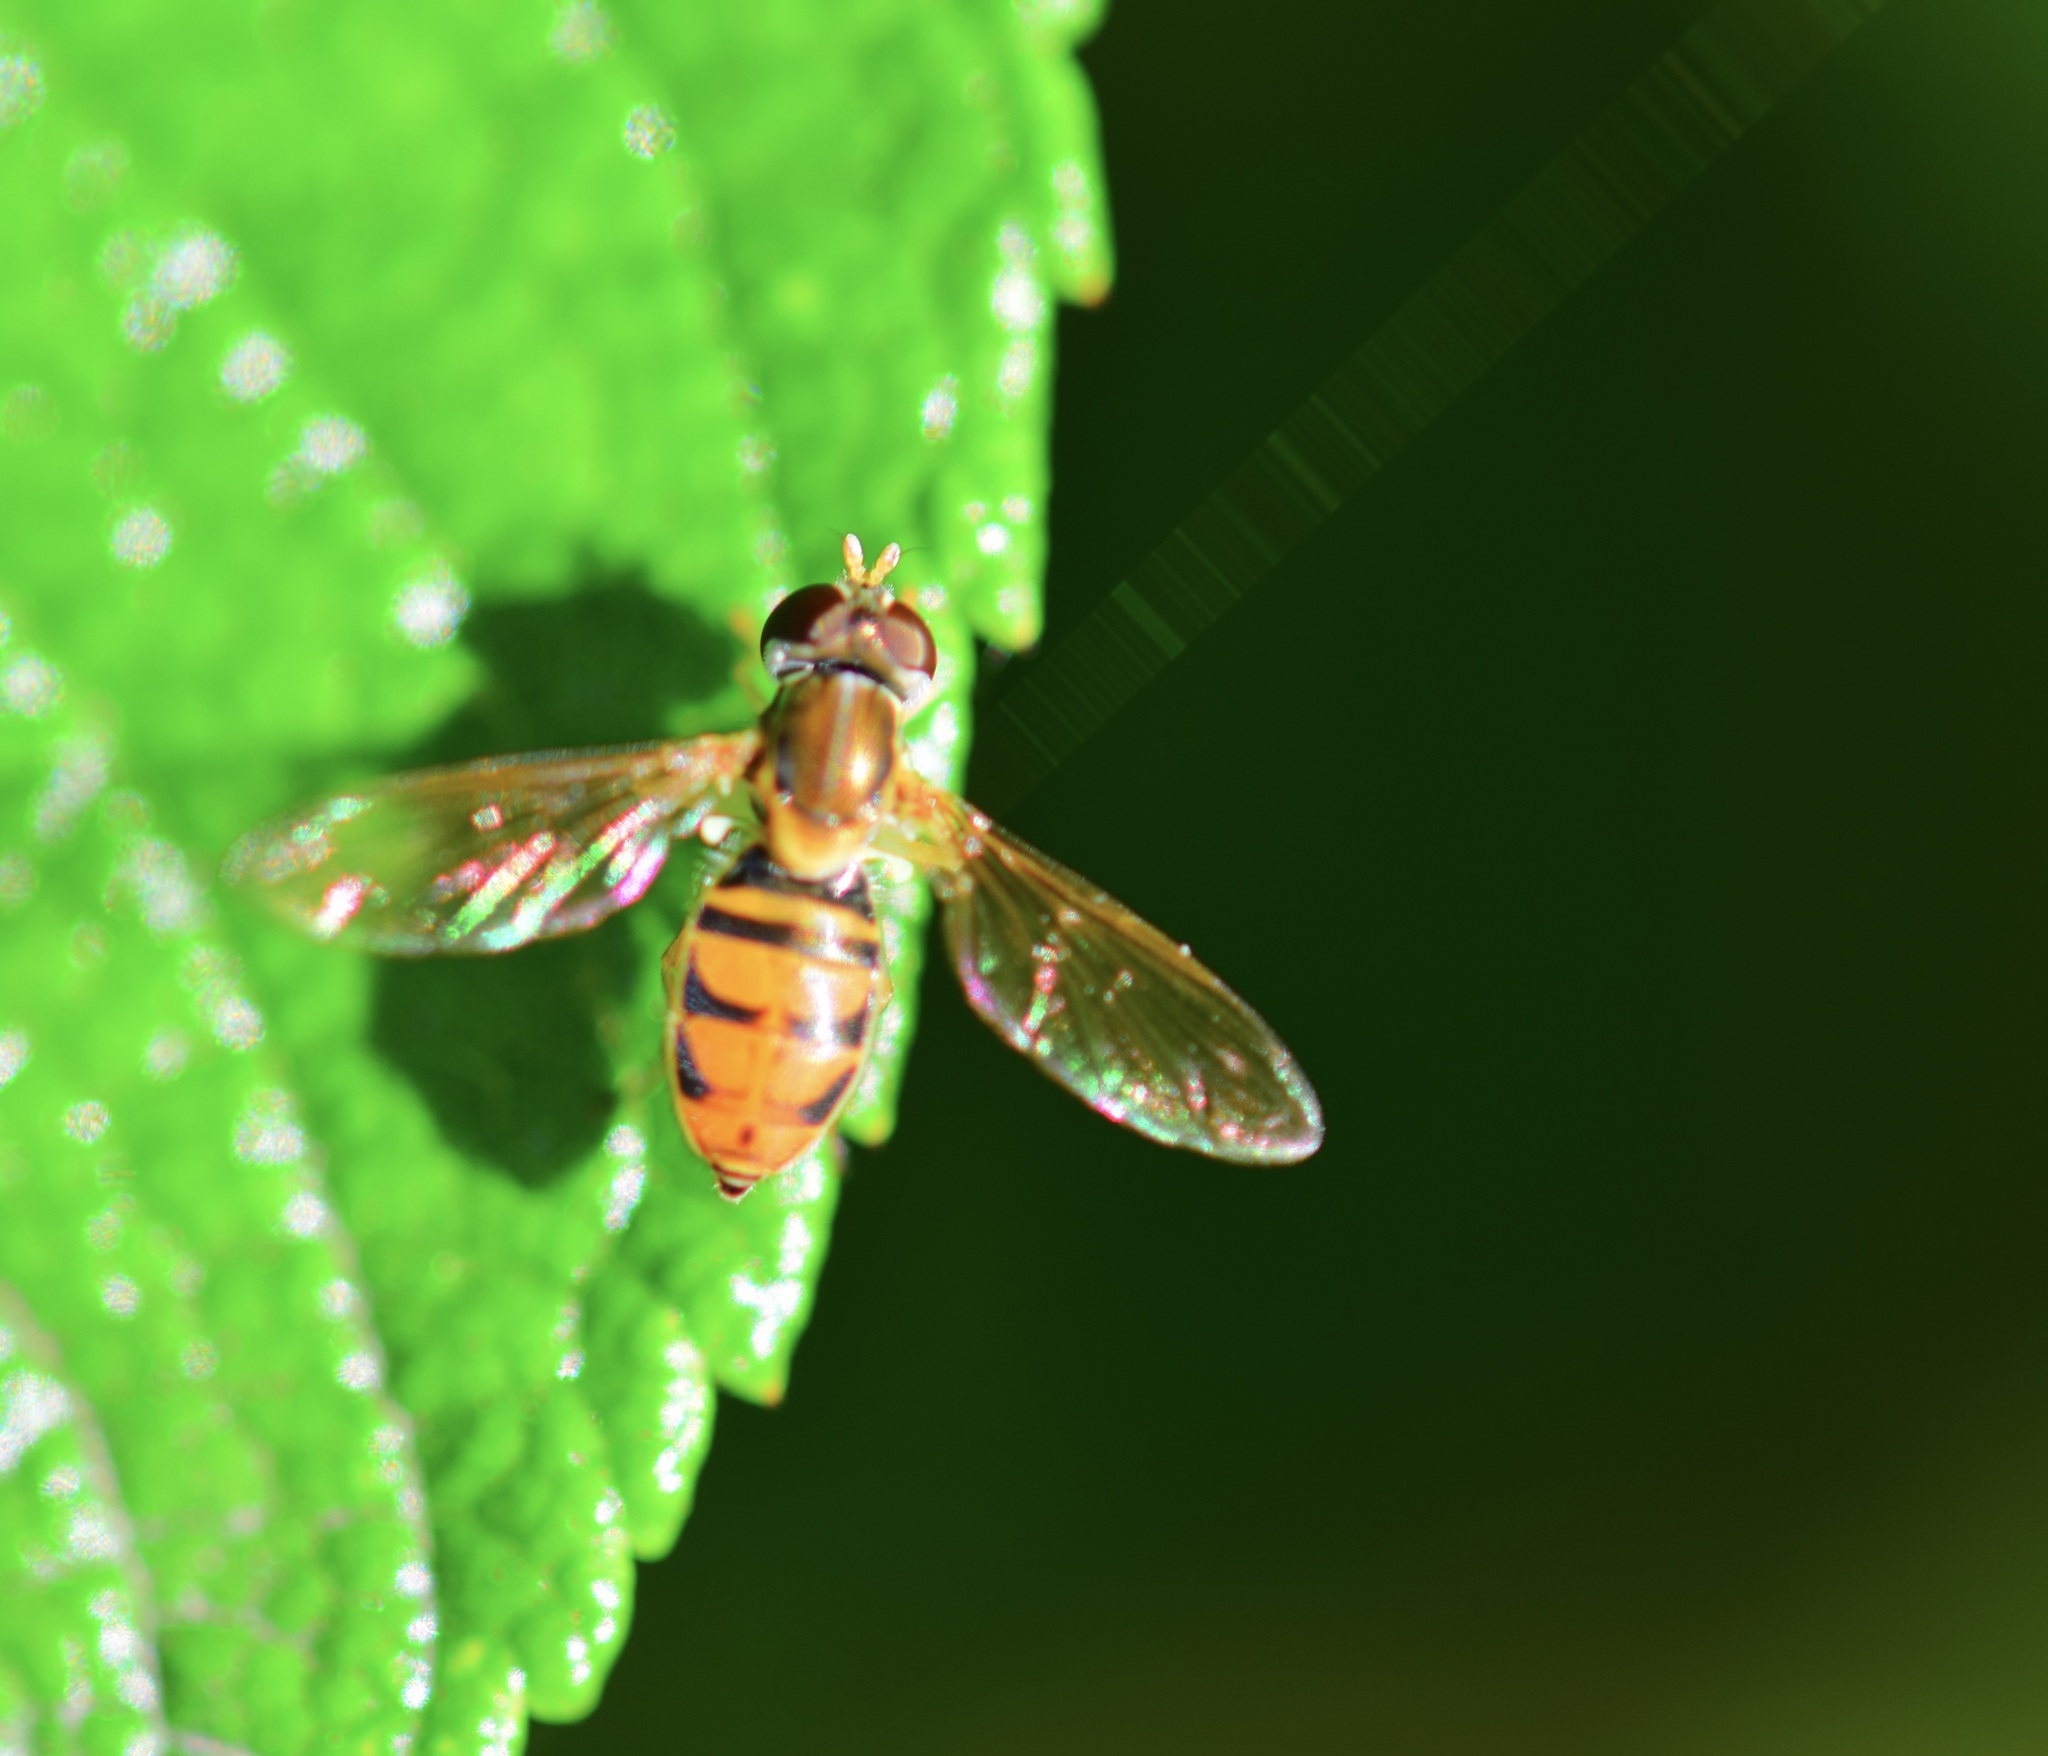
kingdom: Animalia
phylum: Arthropoda
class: Insecta
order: Diptera
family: Syrphidae
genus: Toxomerus
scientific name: Toxomerus marginatus
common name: Syrphid fly
